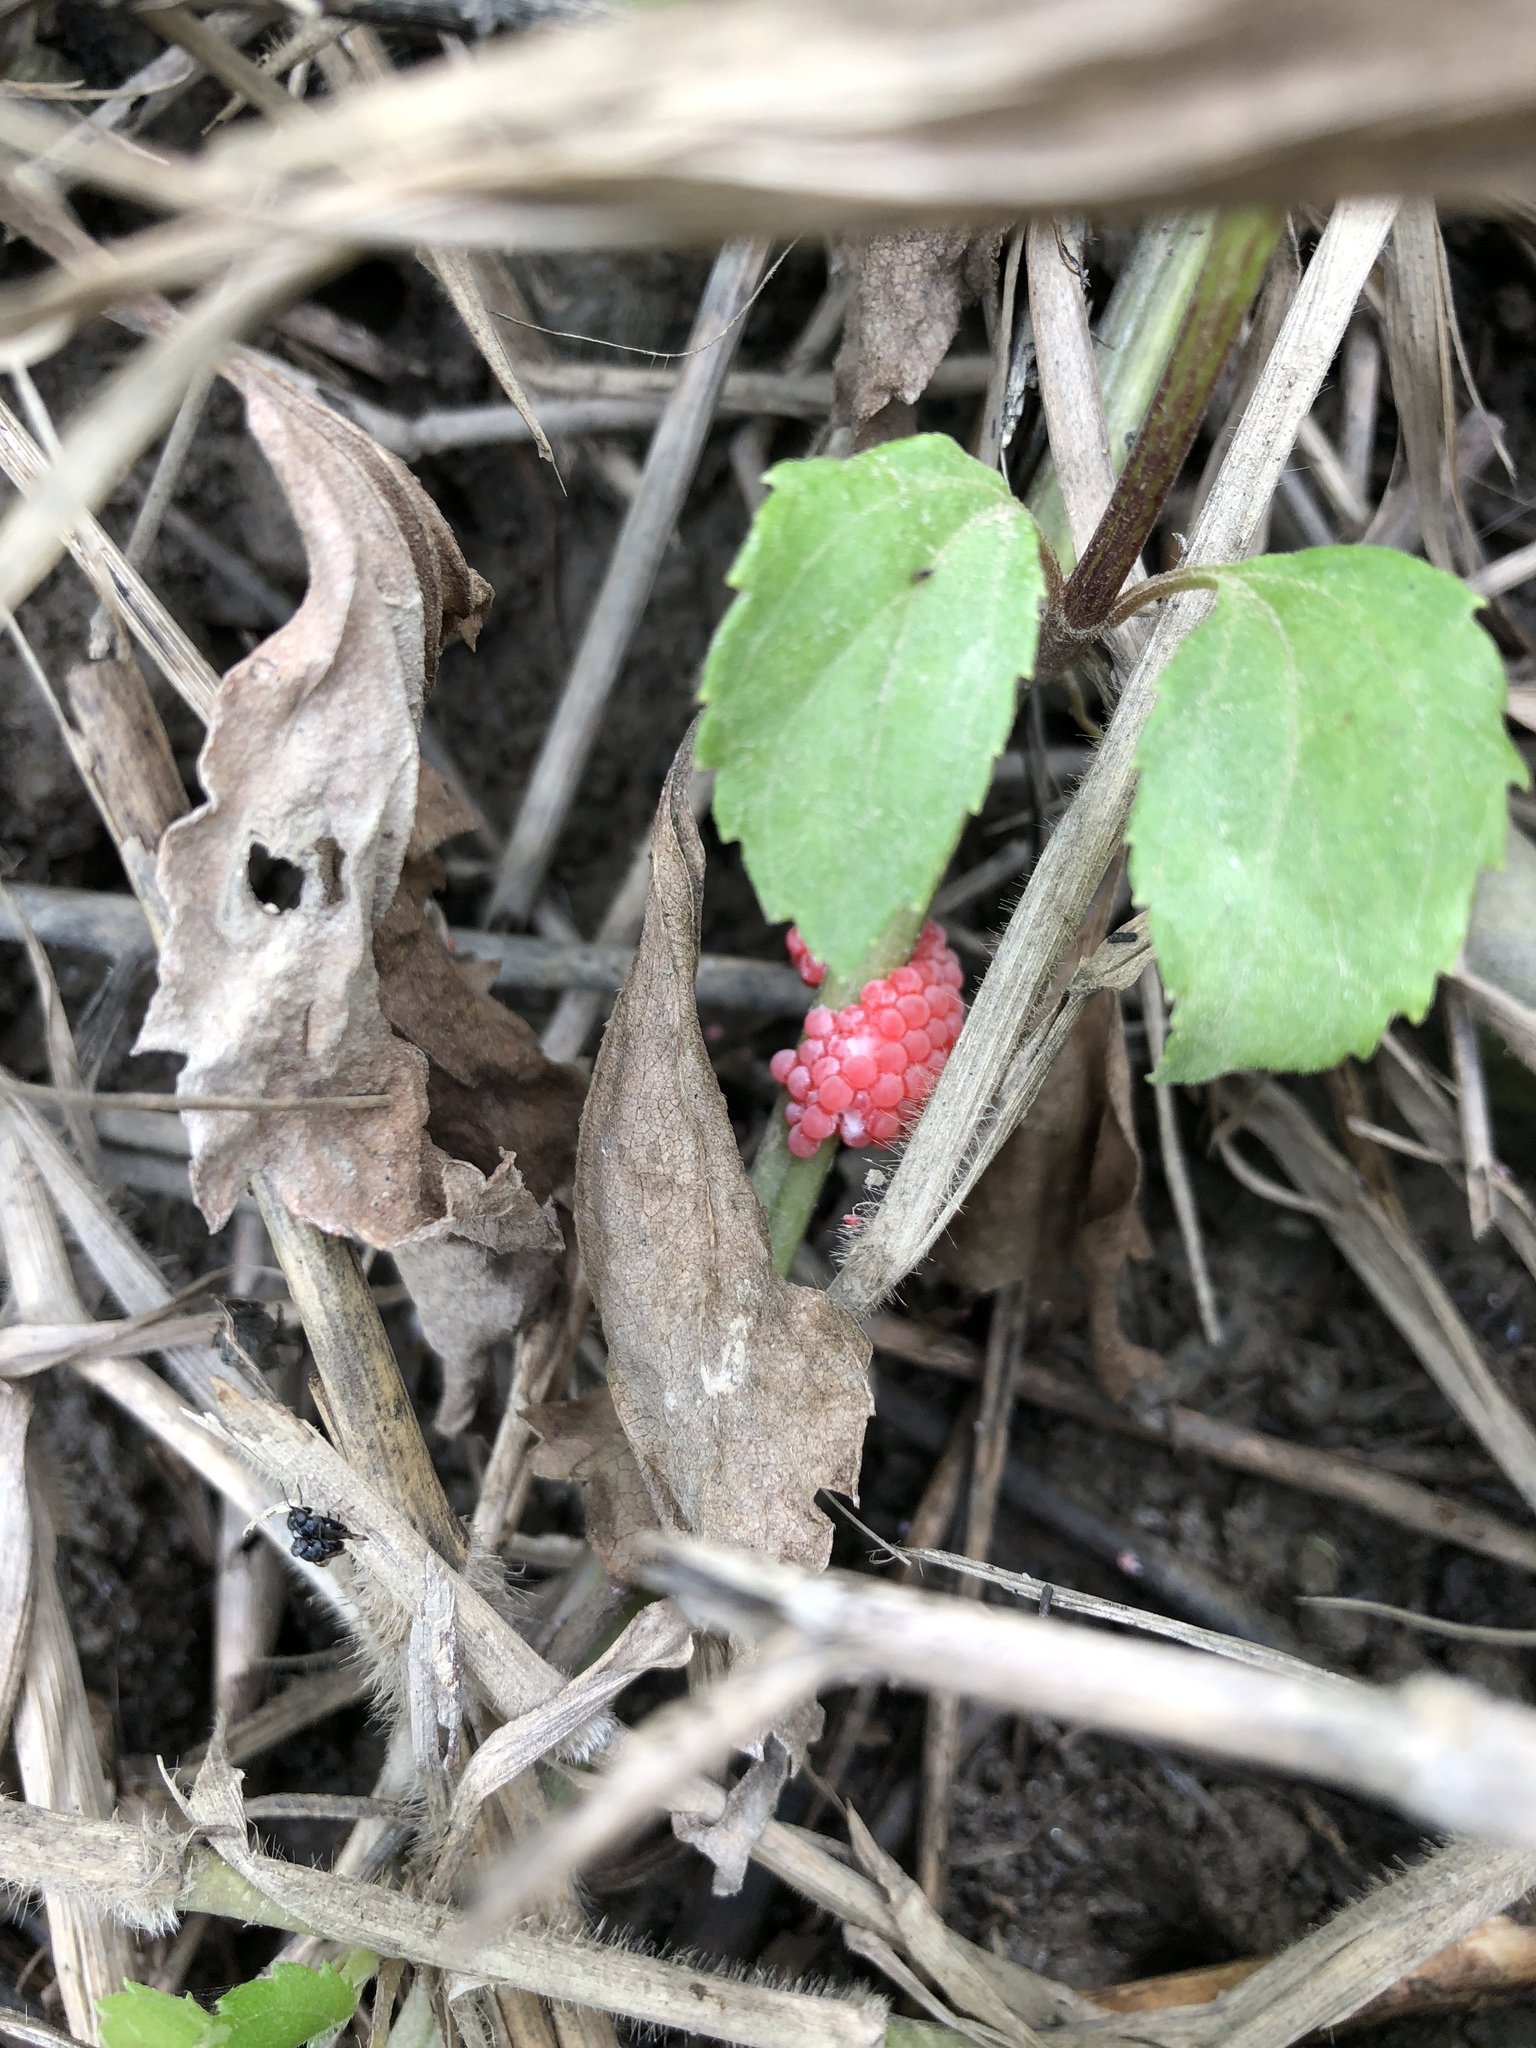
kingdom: Animalia
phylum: Mollusca
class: Gastropoda
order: Architaenioglossa
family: Ampullariidae
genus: Pomacea
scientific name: Pomacea canaliculata
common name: Channeled applesnail
